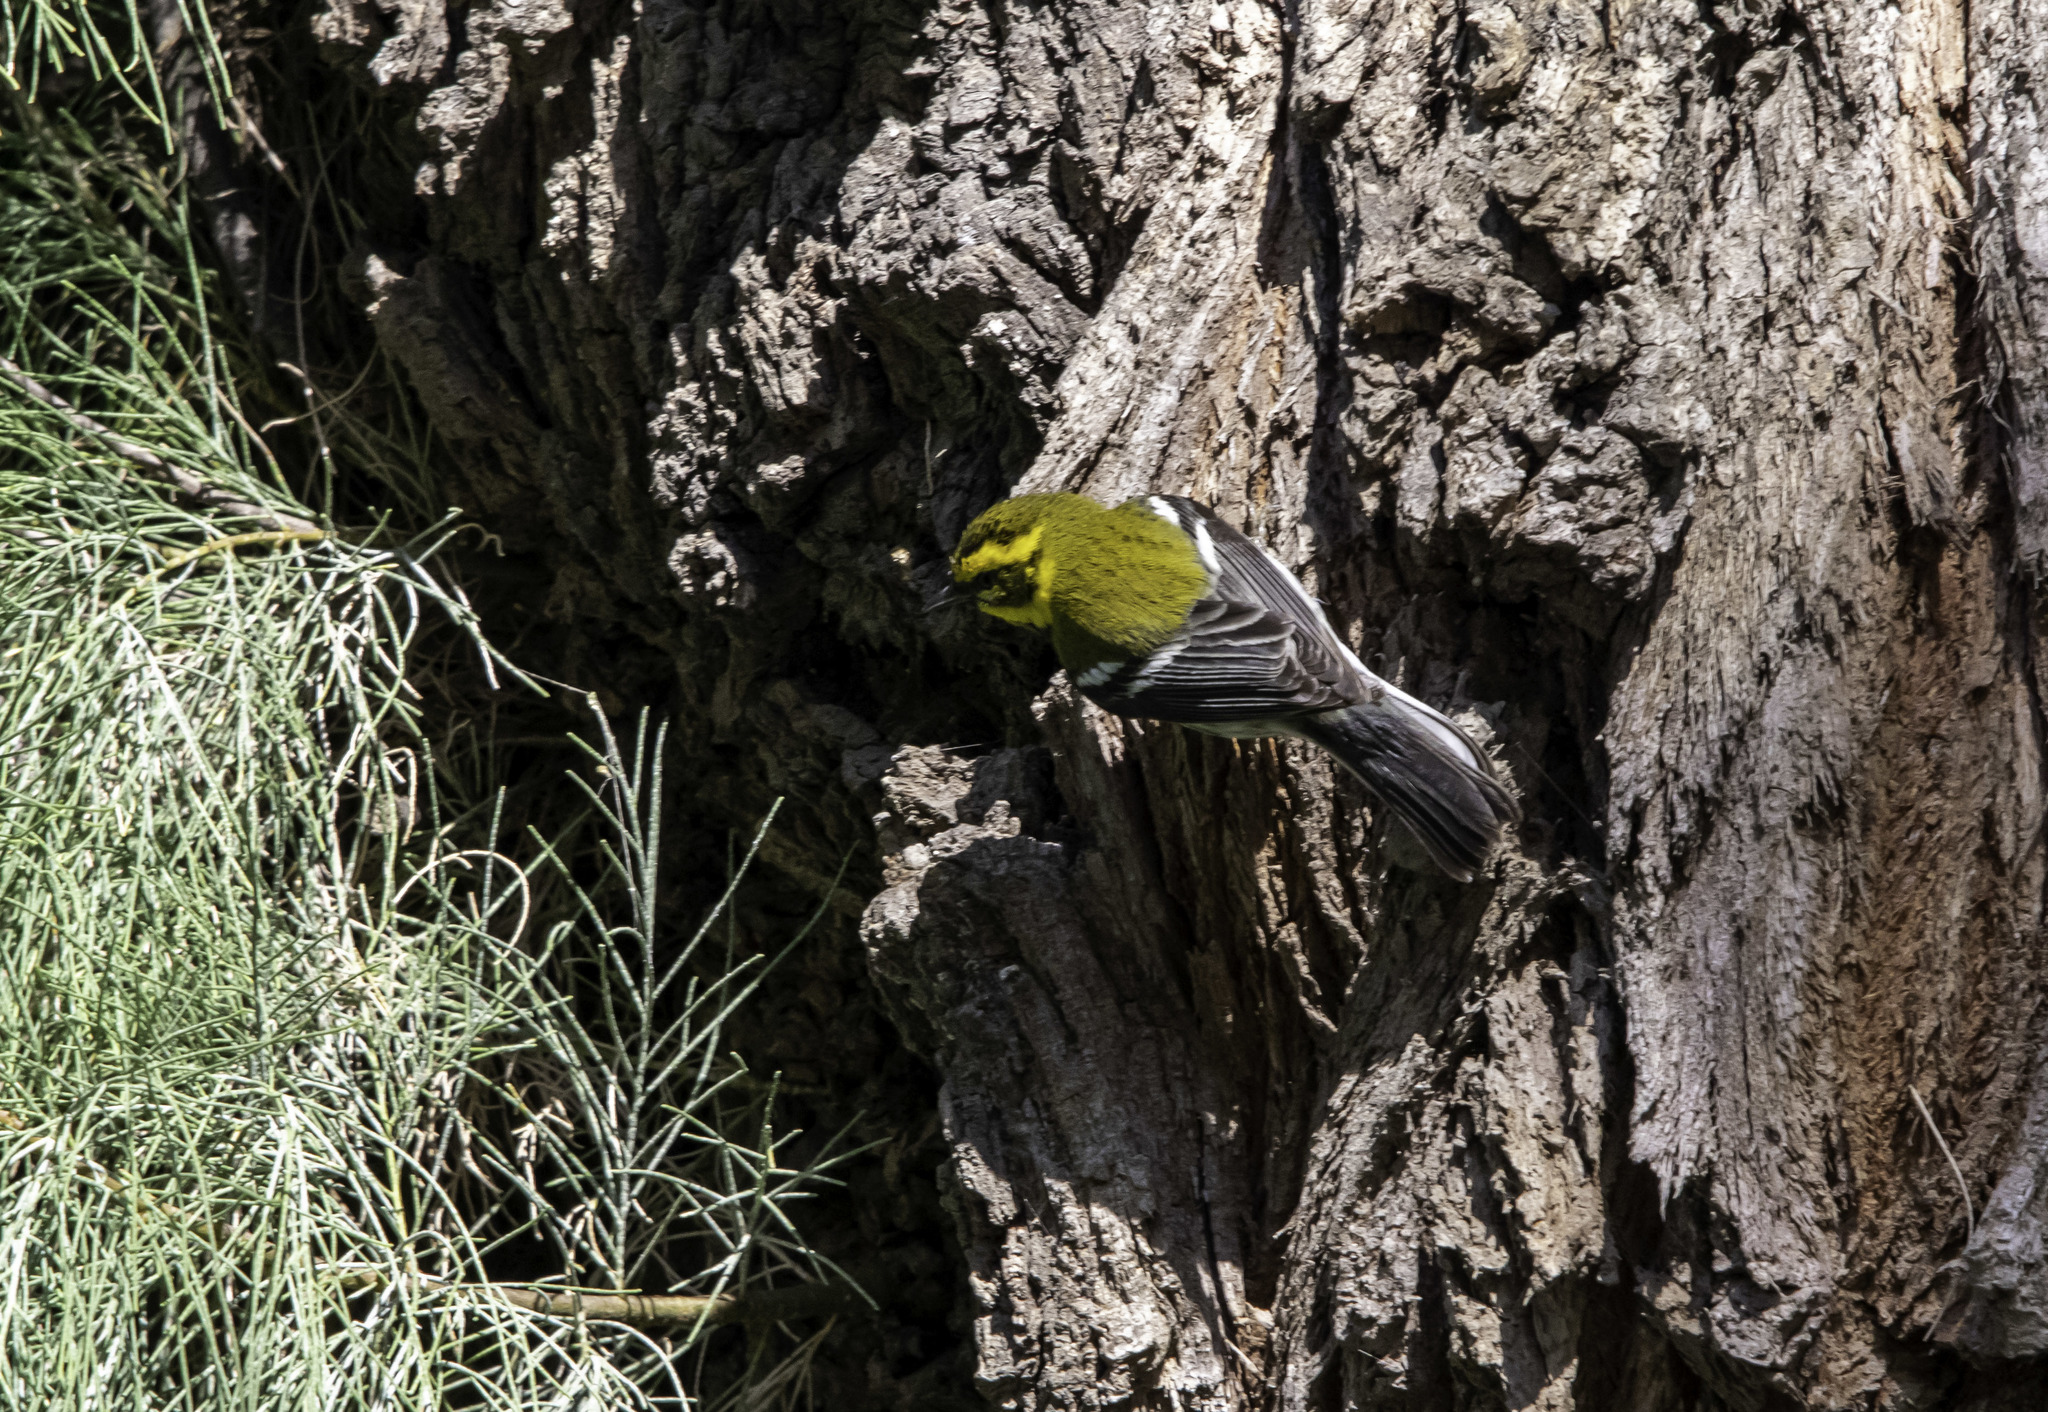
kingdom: Animalia
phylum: Chordata
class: Aves
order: Passeriformes
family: Parulidae
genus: Setophaga
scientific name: Setophaga townsendi
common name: Townsend's warbler
